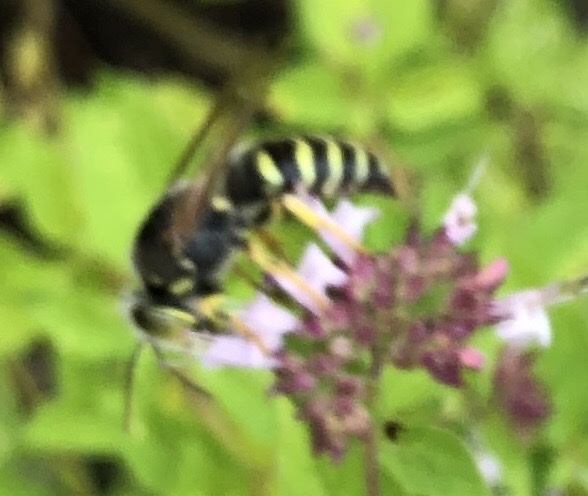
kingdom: Animalia
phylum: Arthropoda
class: Insecta
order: Hymenoptera
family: Crabronidae
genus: Bembix
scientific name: Bembix rostrata
